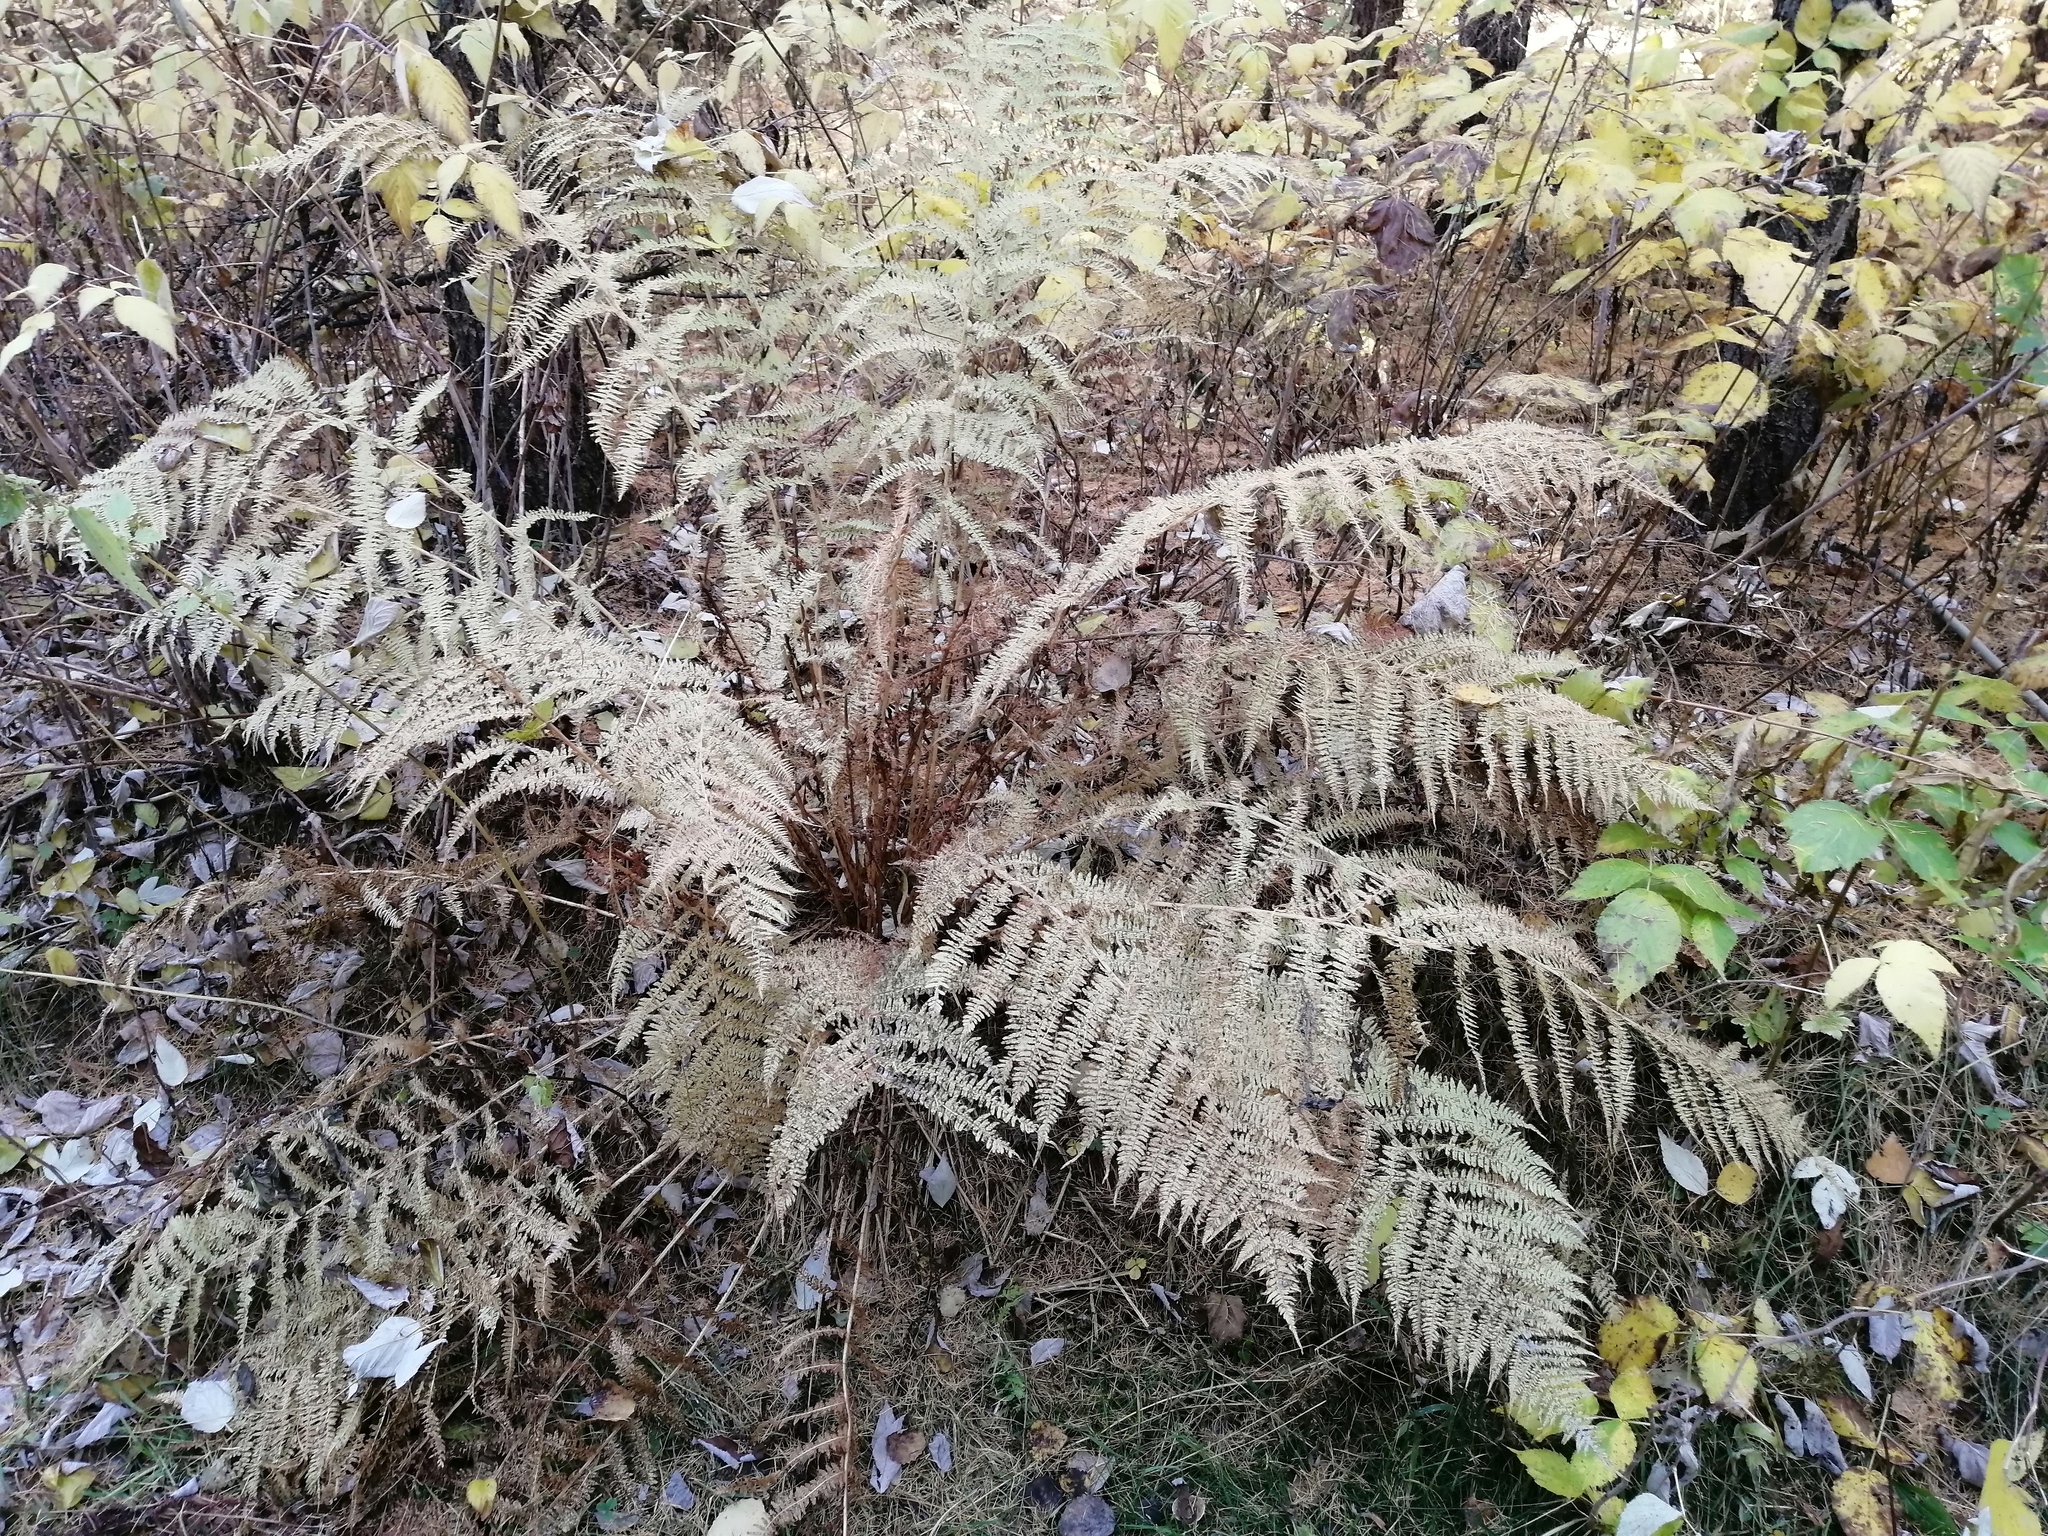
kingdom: Plantae
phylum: Tracheophyta
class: Polypodiopsida
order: Polypodiales
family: Athyriaceae
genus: Athyrium
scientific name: Athyrium filix-femina
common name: Lady fern
